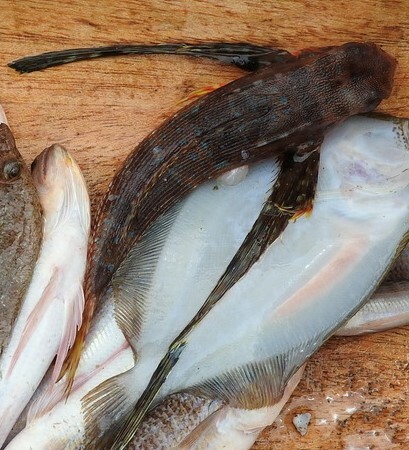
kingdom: Animalia
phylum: Chordata
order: Scorpaeniformes
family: Dactylopteridae
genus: Dactylopterus
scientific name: Dactylopterus volitans
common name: Flying gurnard
